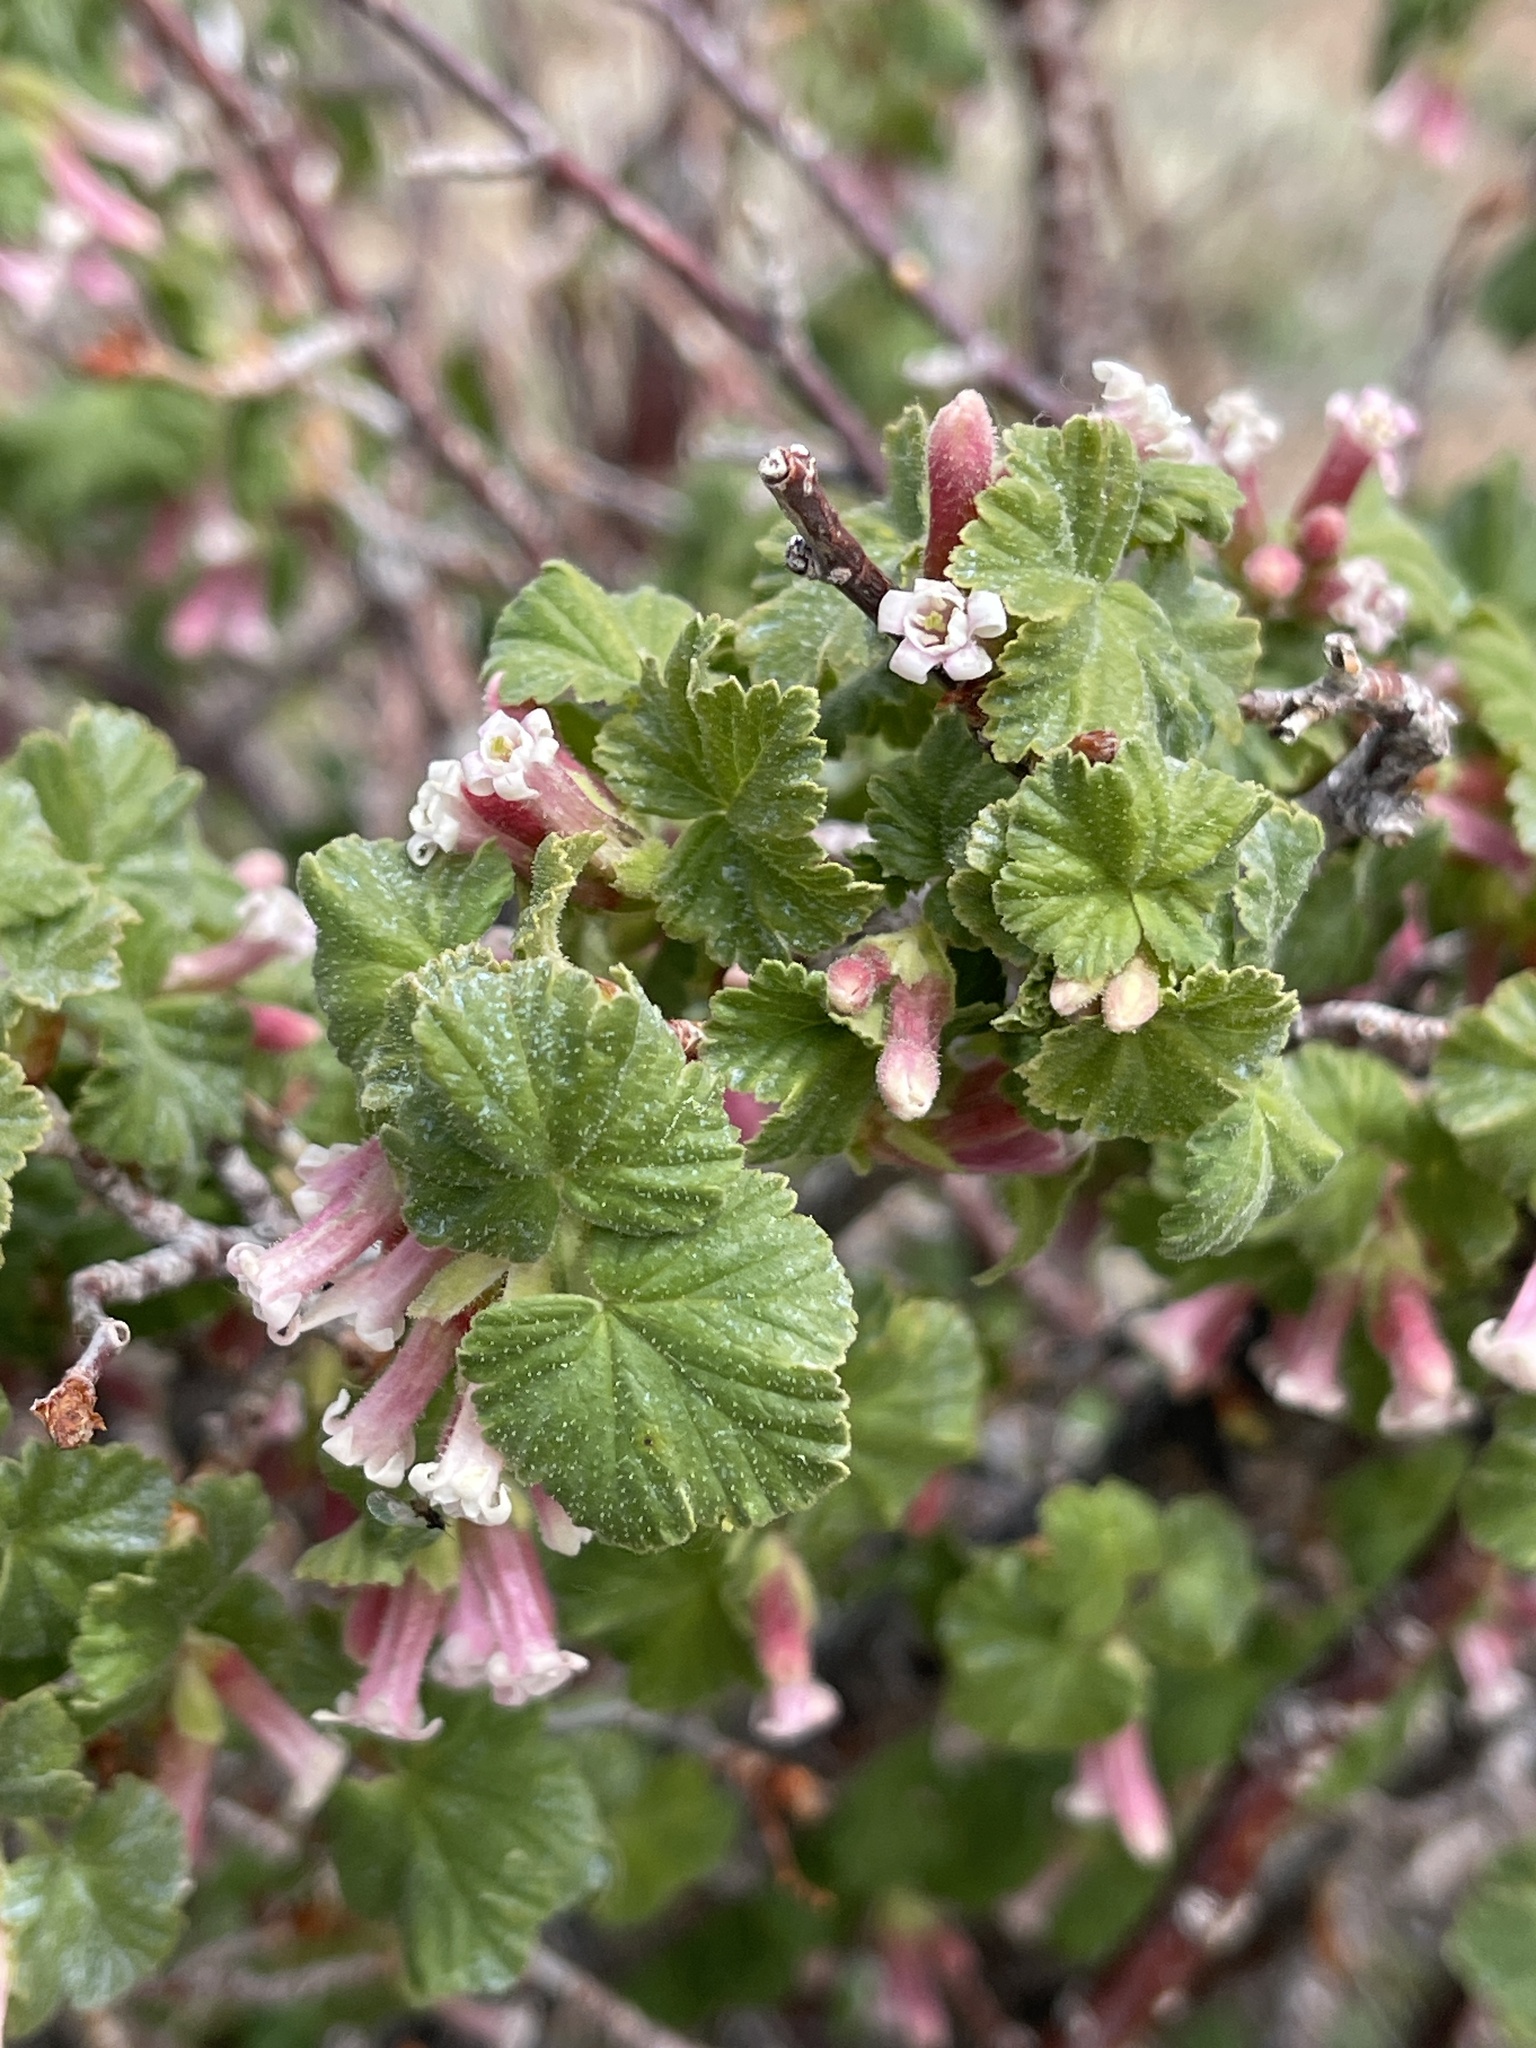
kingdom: Plantae
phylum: Tracheophyta
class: Magnoliopsida
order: Saxifragales
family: Grossulariaceae
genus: Ribes
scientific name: Ribes cereum
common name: Wax currant
